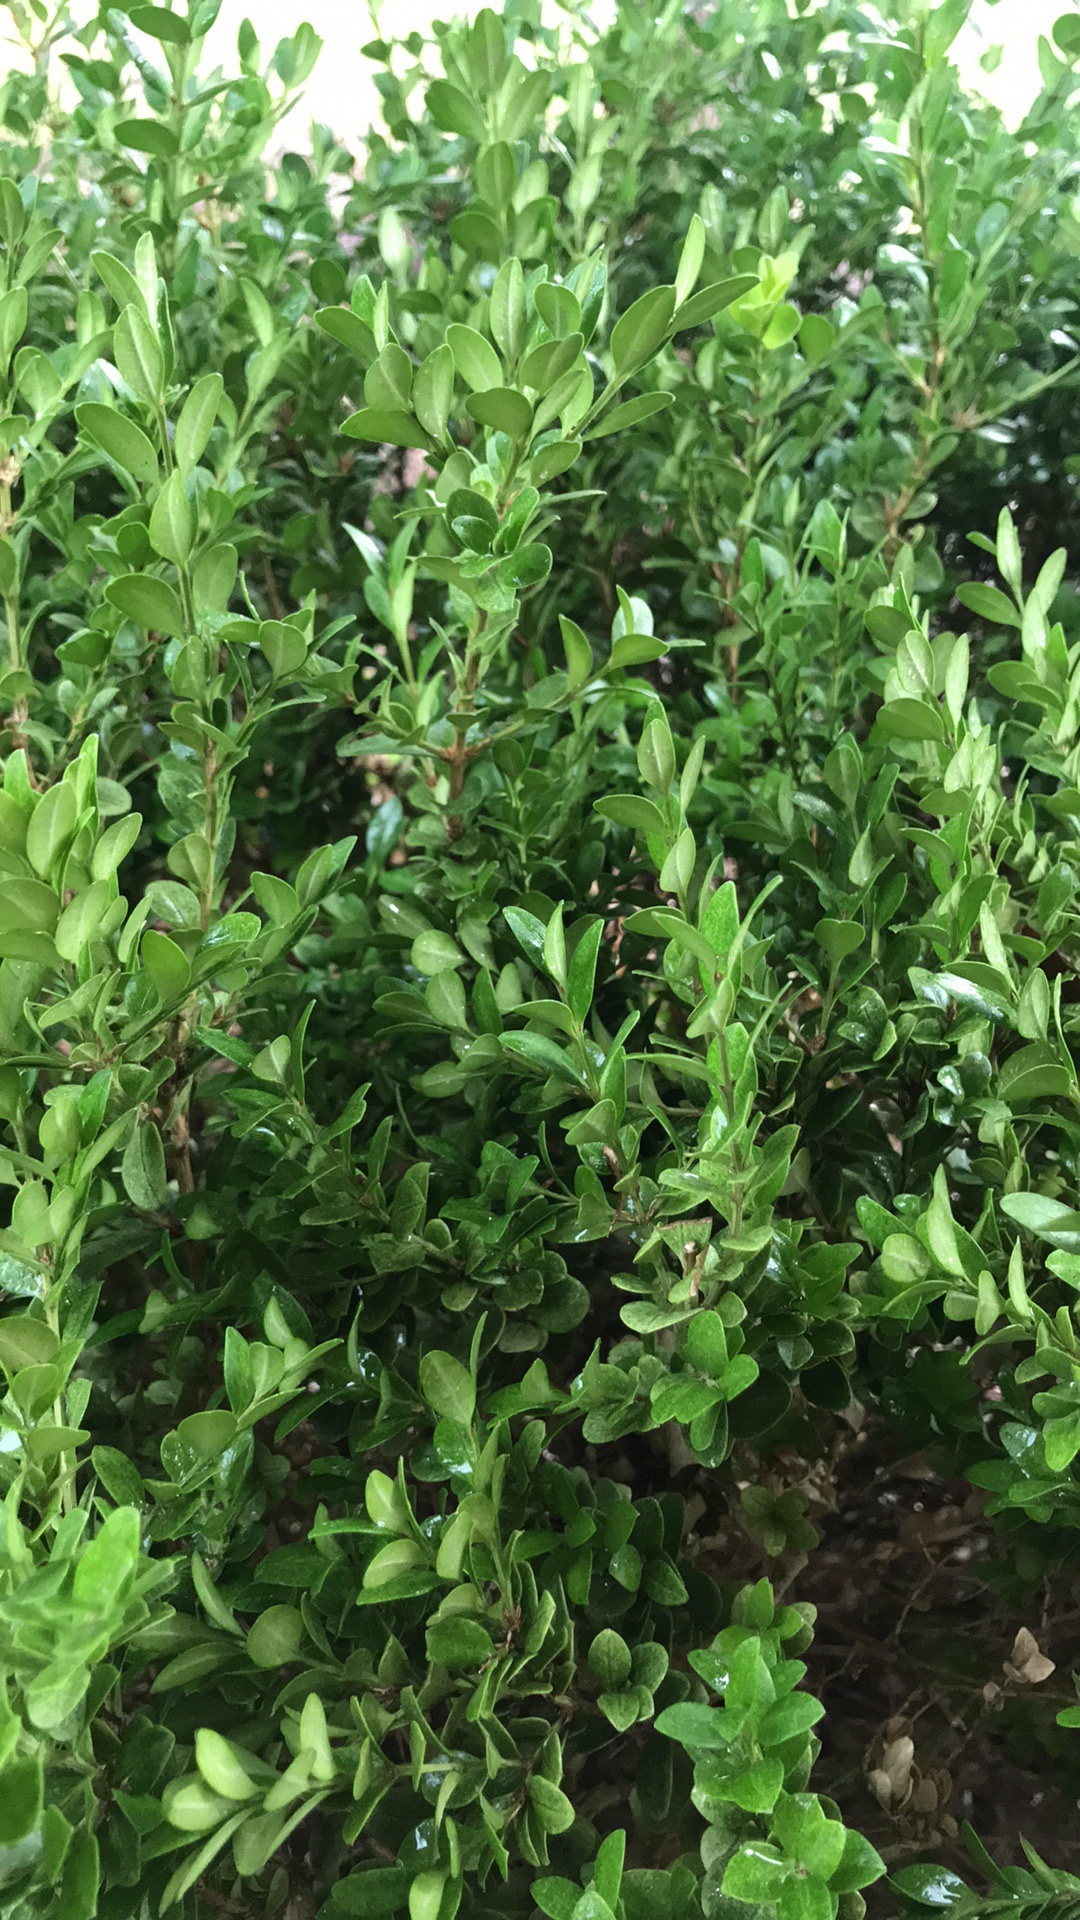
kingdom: Plantae
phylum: Tracheophyta
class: Magnoliopsida
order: Vitales
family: Vitaceae
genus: Vitis
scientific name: Vitis mustangensis
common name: Mustang grape
